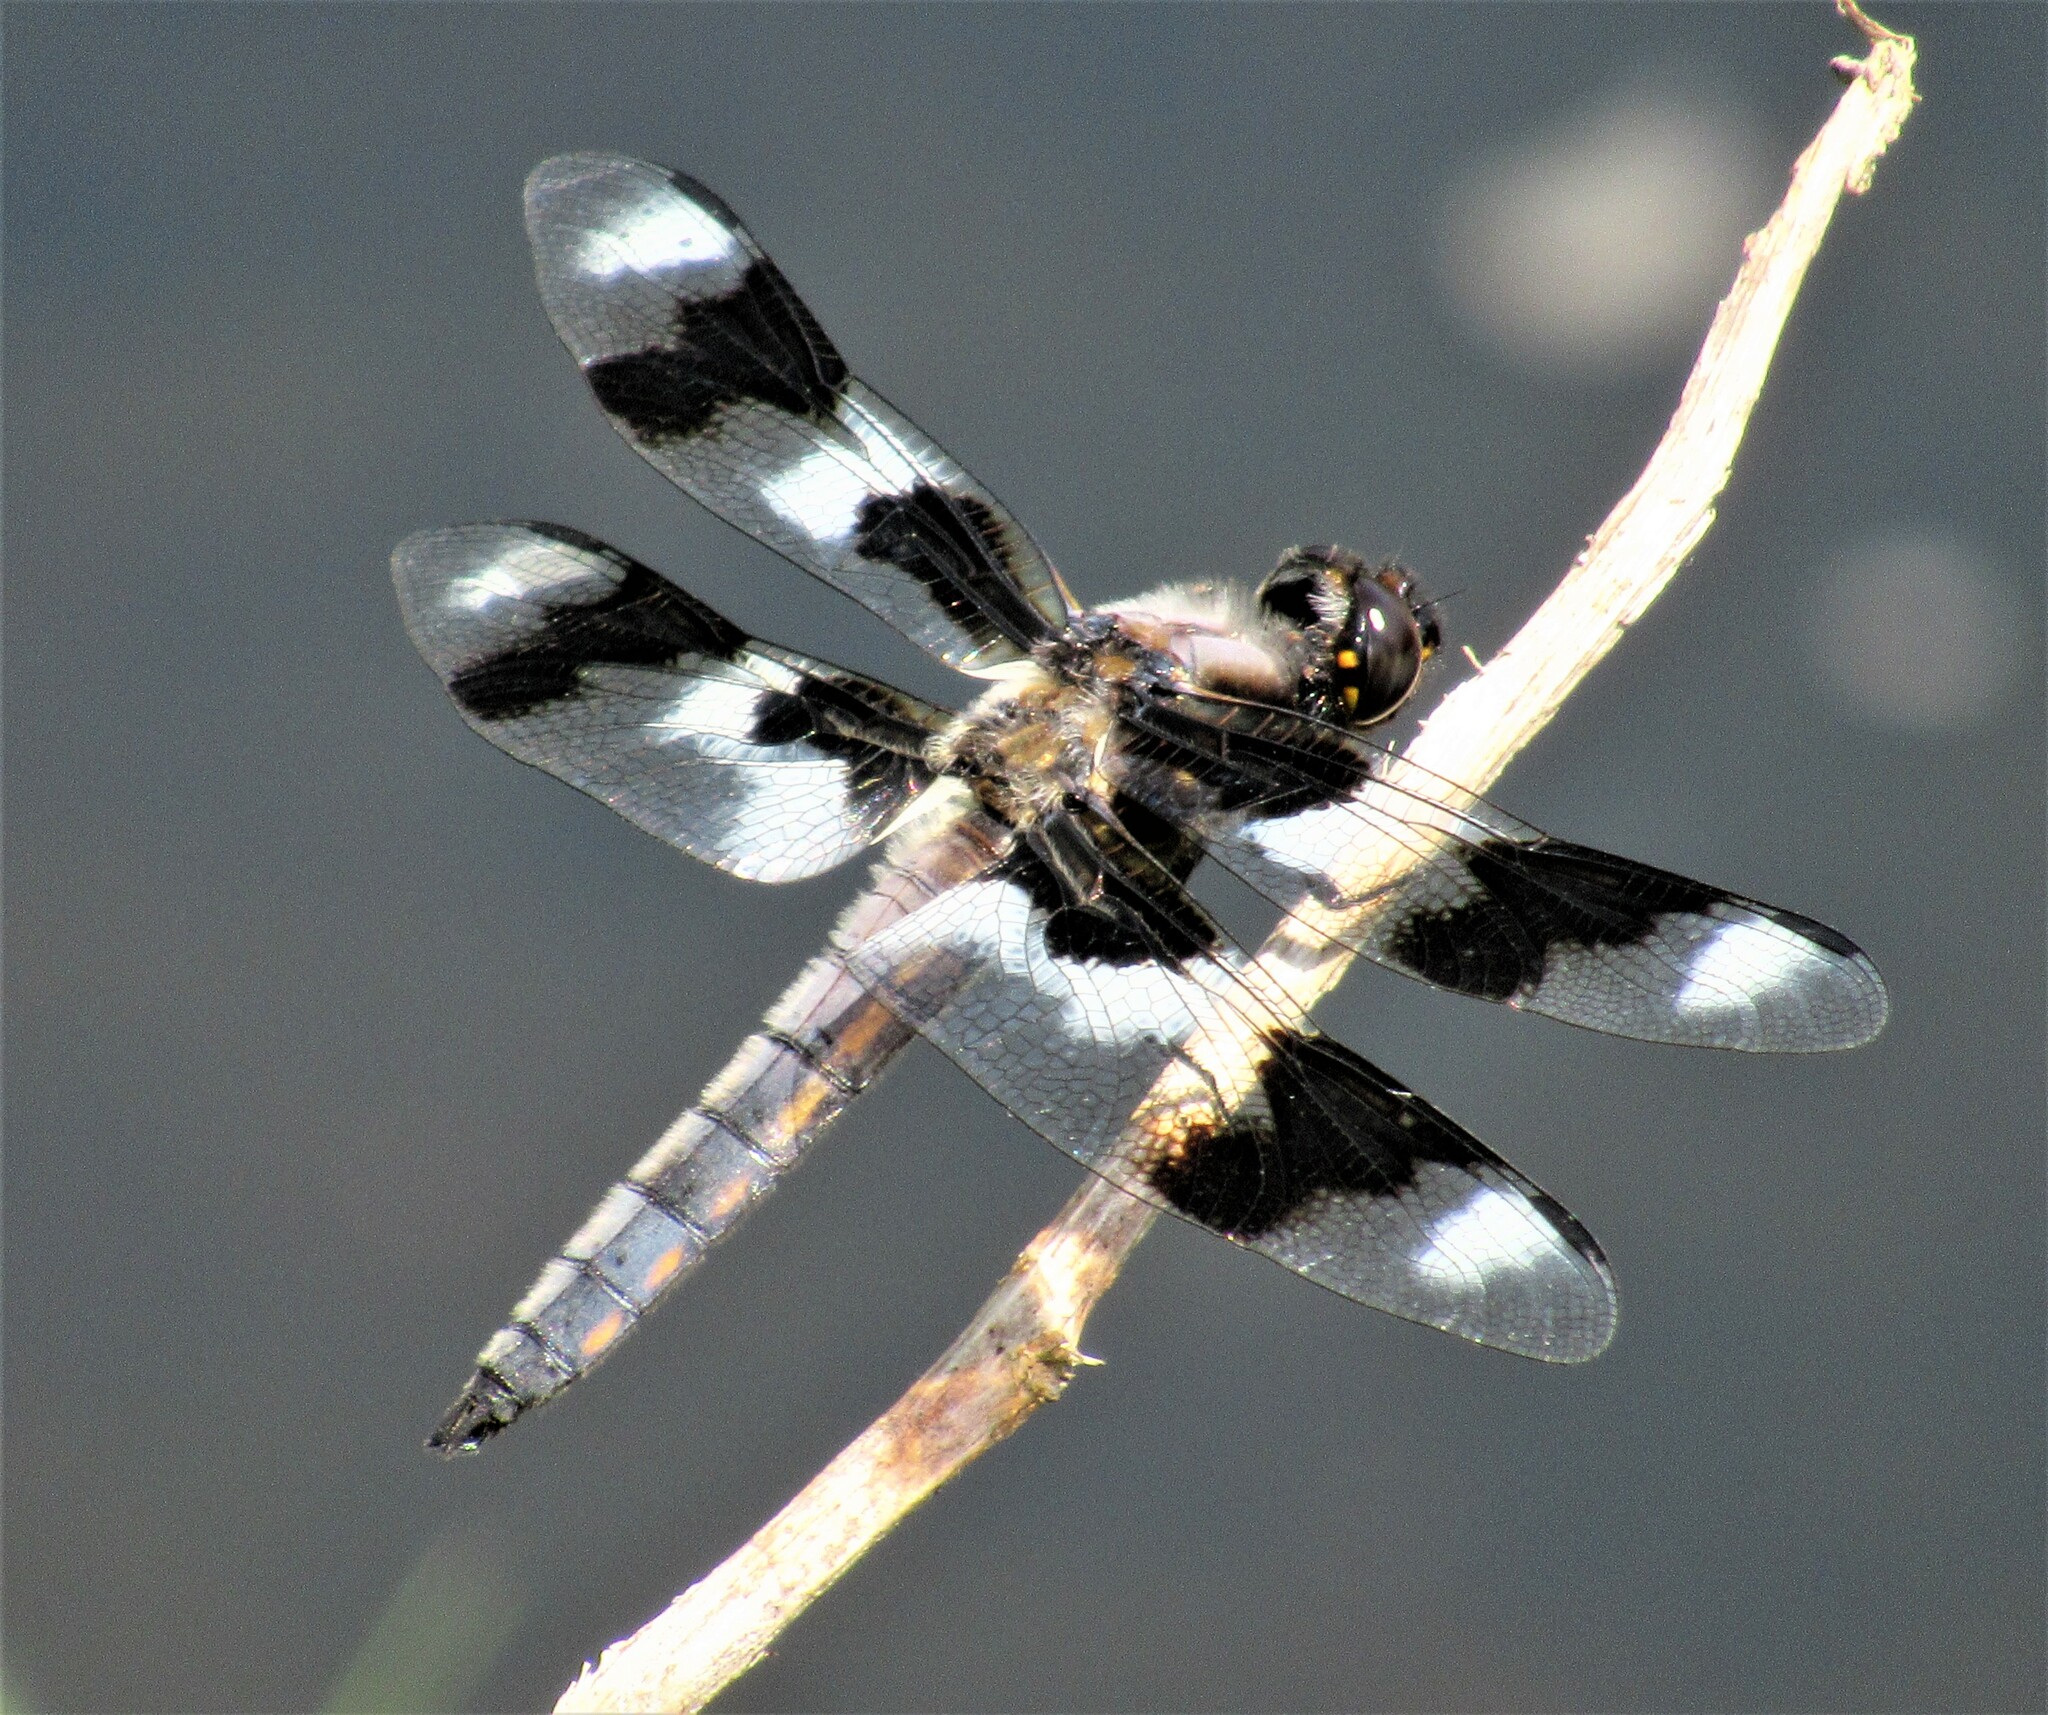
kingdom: Animalia
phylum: Arthropoda
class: Insecta
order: Odonata
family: Libellulidae
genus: Libellula
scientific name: Libellula forensis
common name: Eight-spotted skimmer
